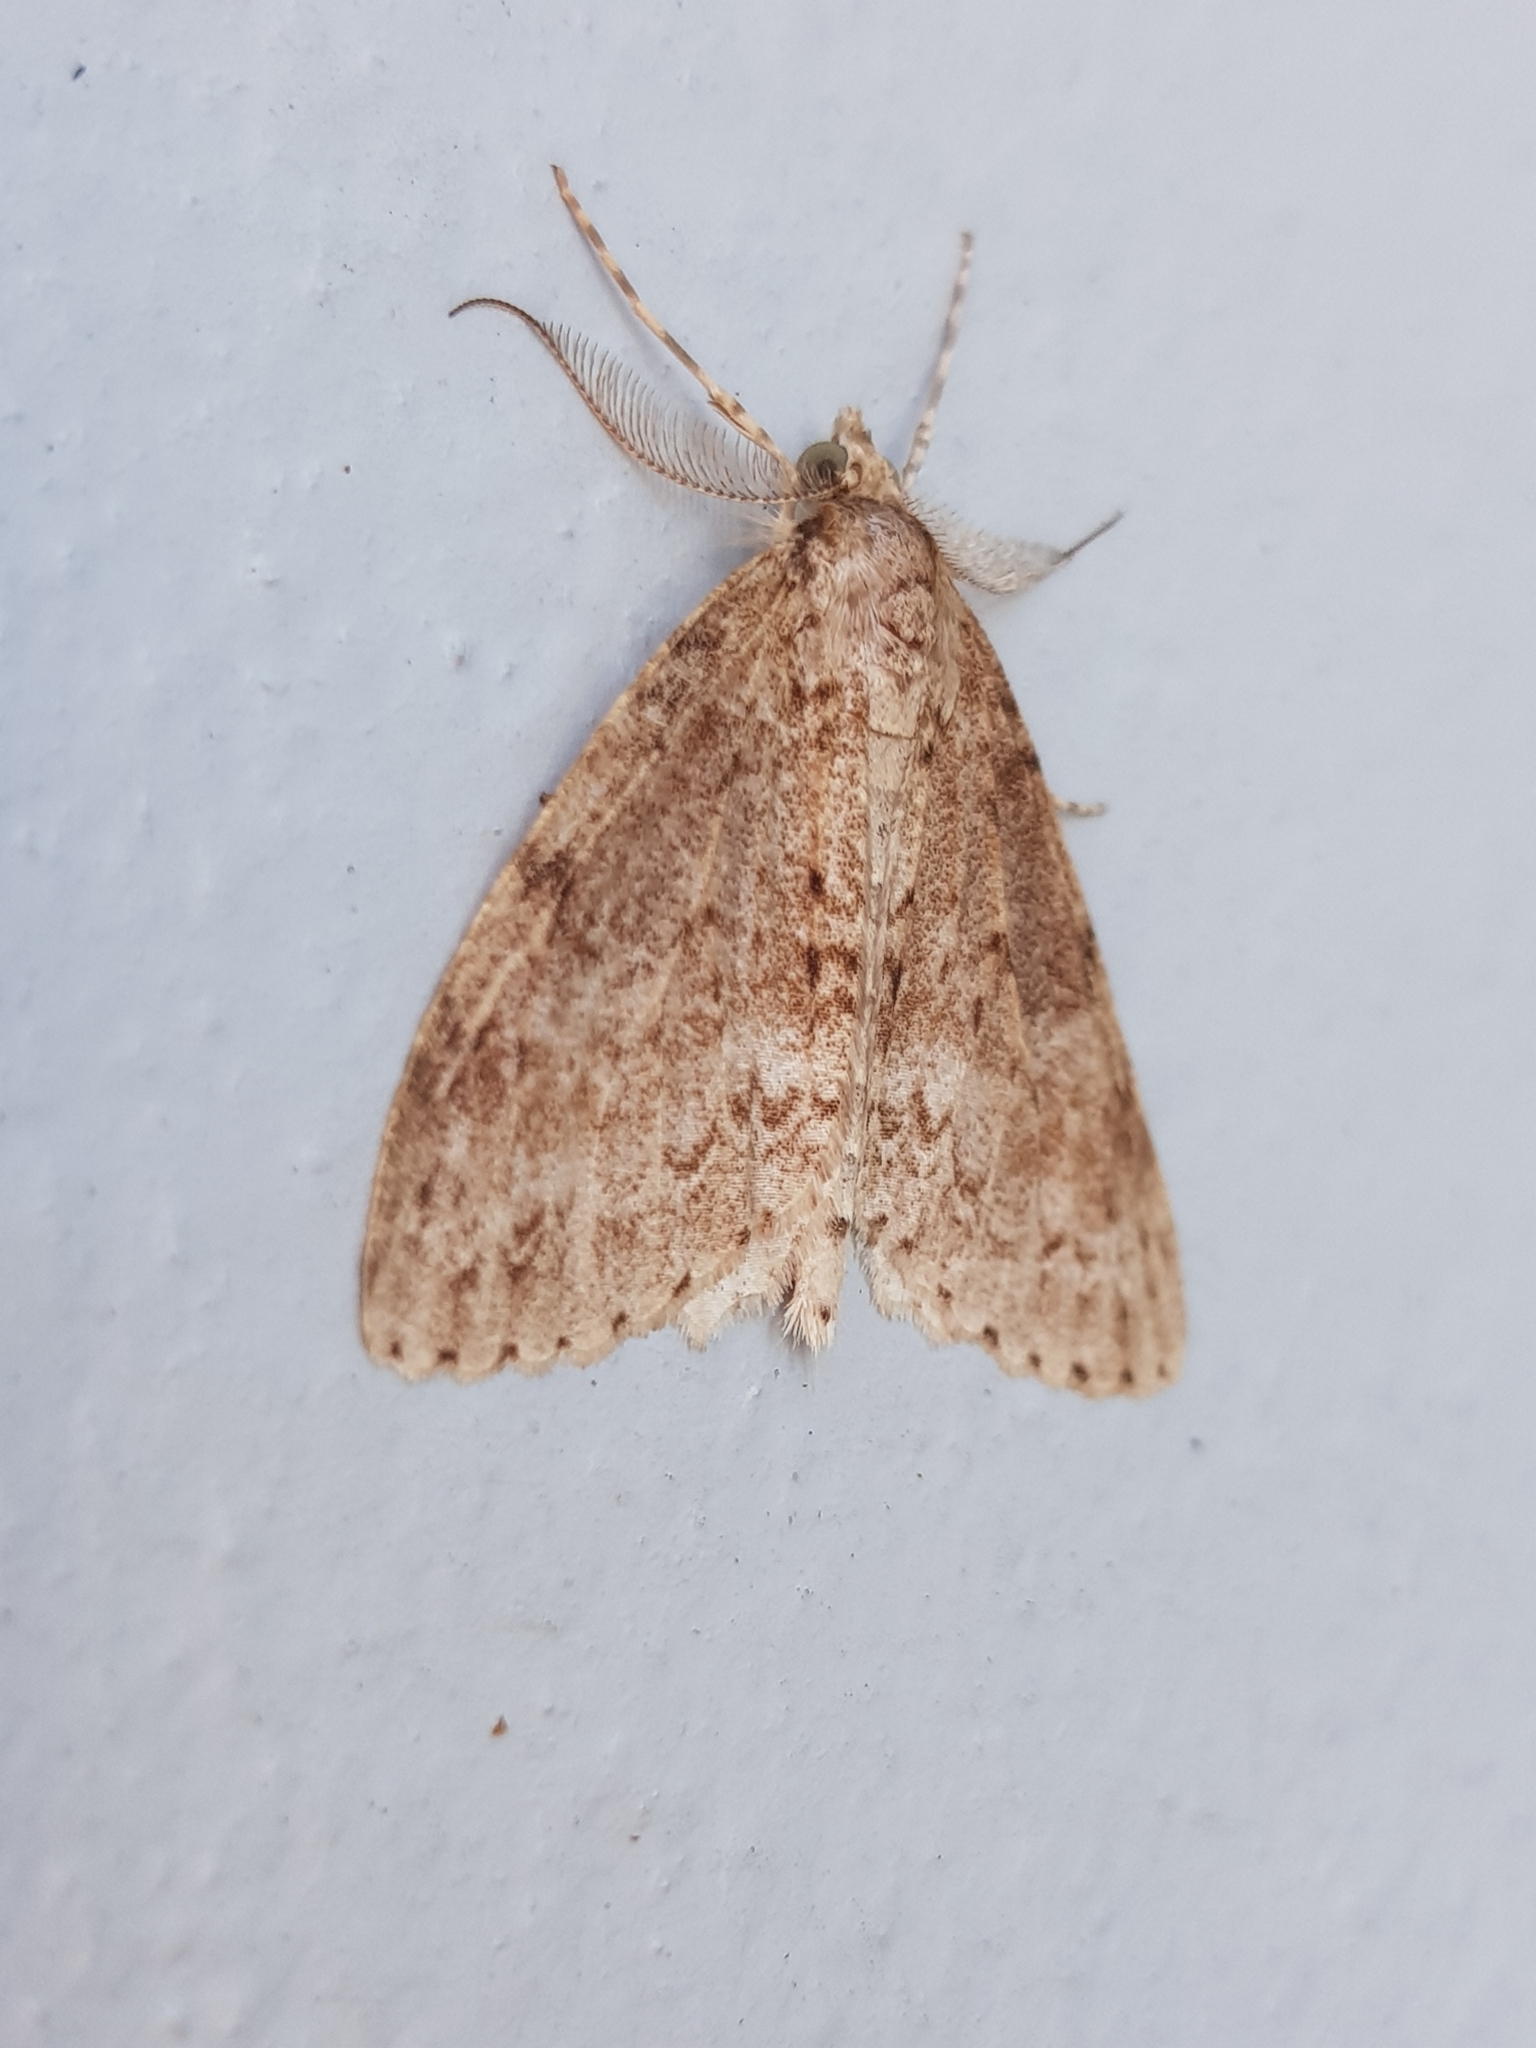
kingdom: Animalia
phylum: Arthropoda
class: Insecta
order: Lepidoptera
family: Geometridae
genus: Pseudocoremia
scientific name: Pseudocoremia fenerata
